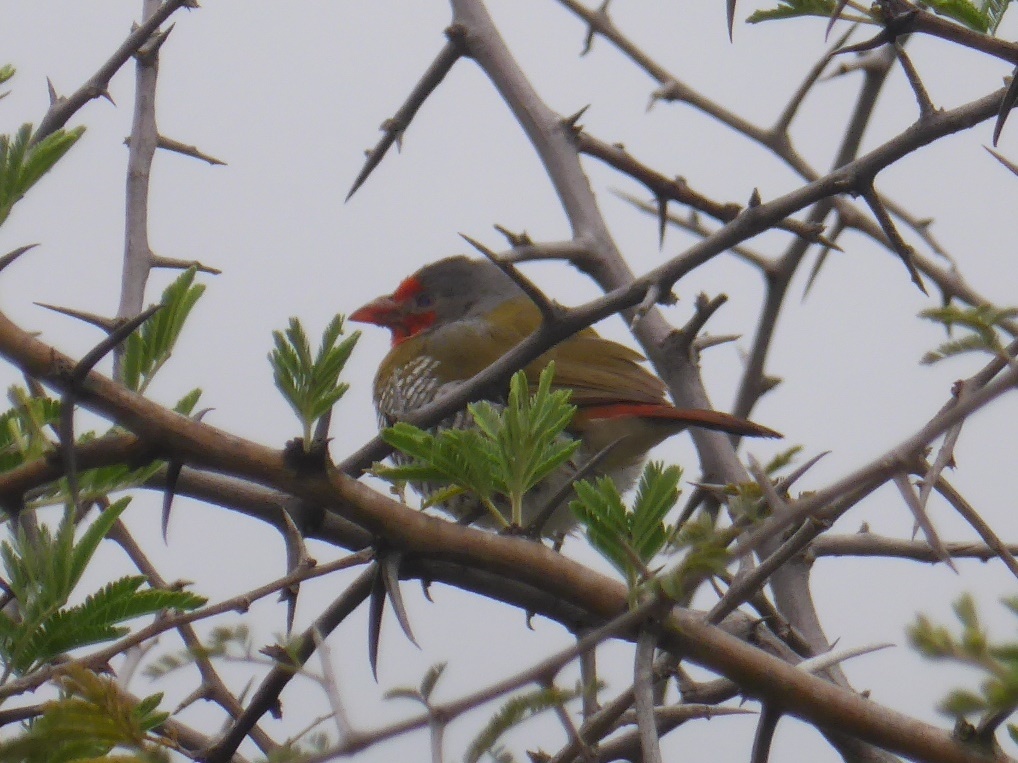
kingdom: Animalia
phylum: Chordata
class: Aves
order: Passeriformes
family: Estrildidae
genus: Pytilia
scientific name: Pytilia melba
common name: Green-winged pytilia
